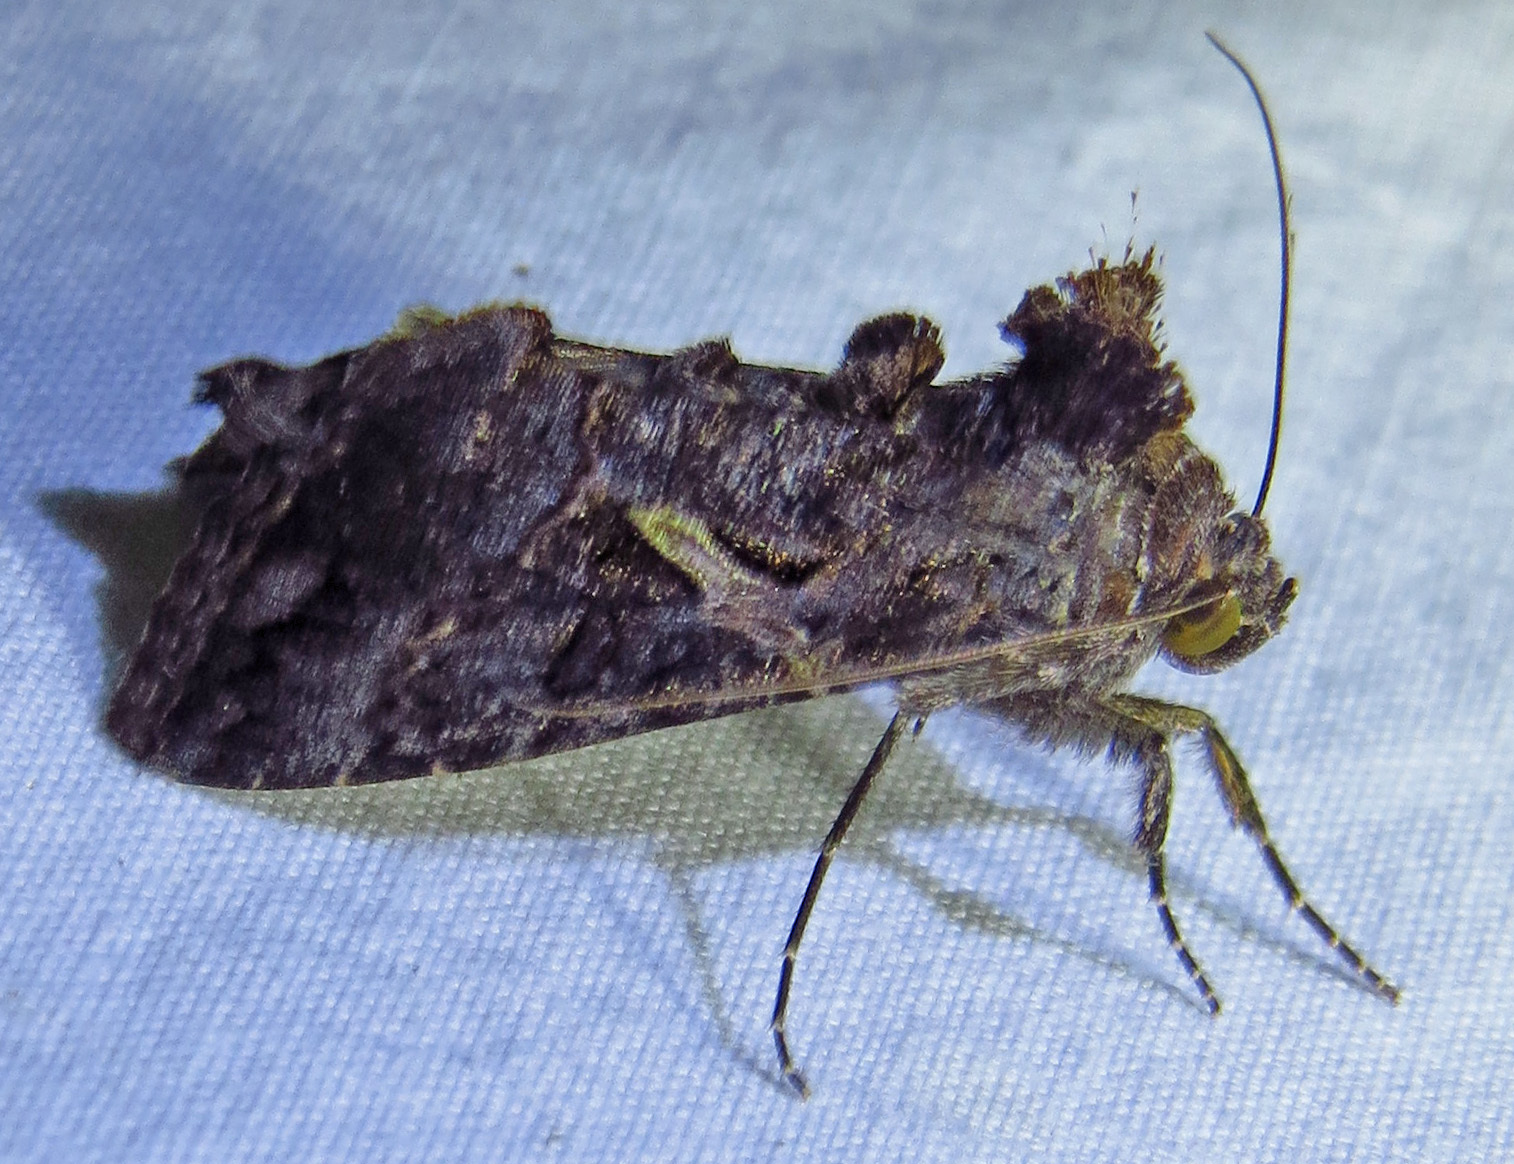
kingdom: Animalia
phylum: Arthropoda
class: Insecta
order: Lepidoptera
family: Noctuidae
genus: Ctenoplusia
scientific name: Ctenoplusia oxygramma
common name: Sharp-stigma looper moth
